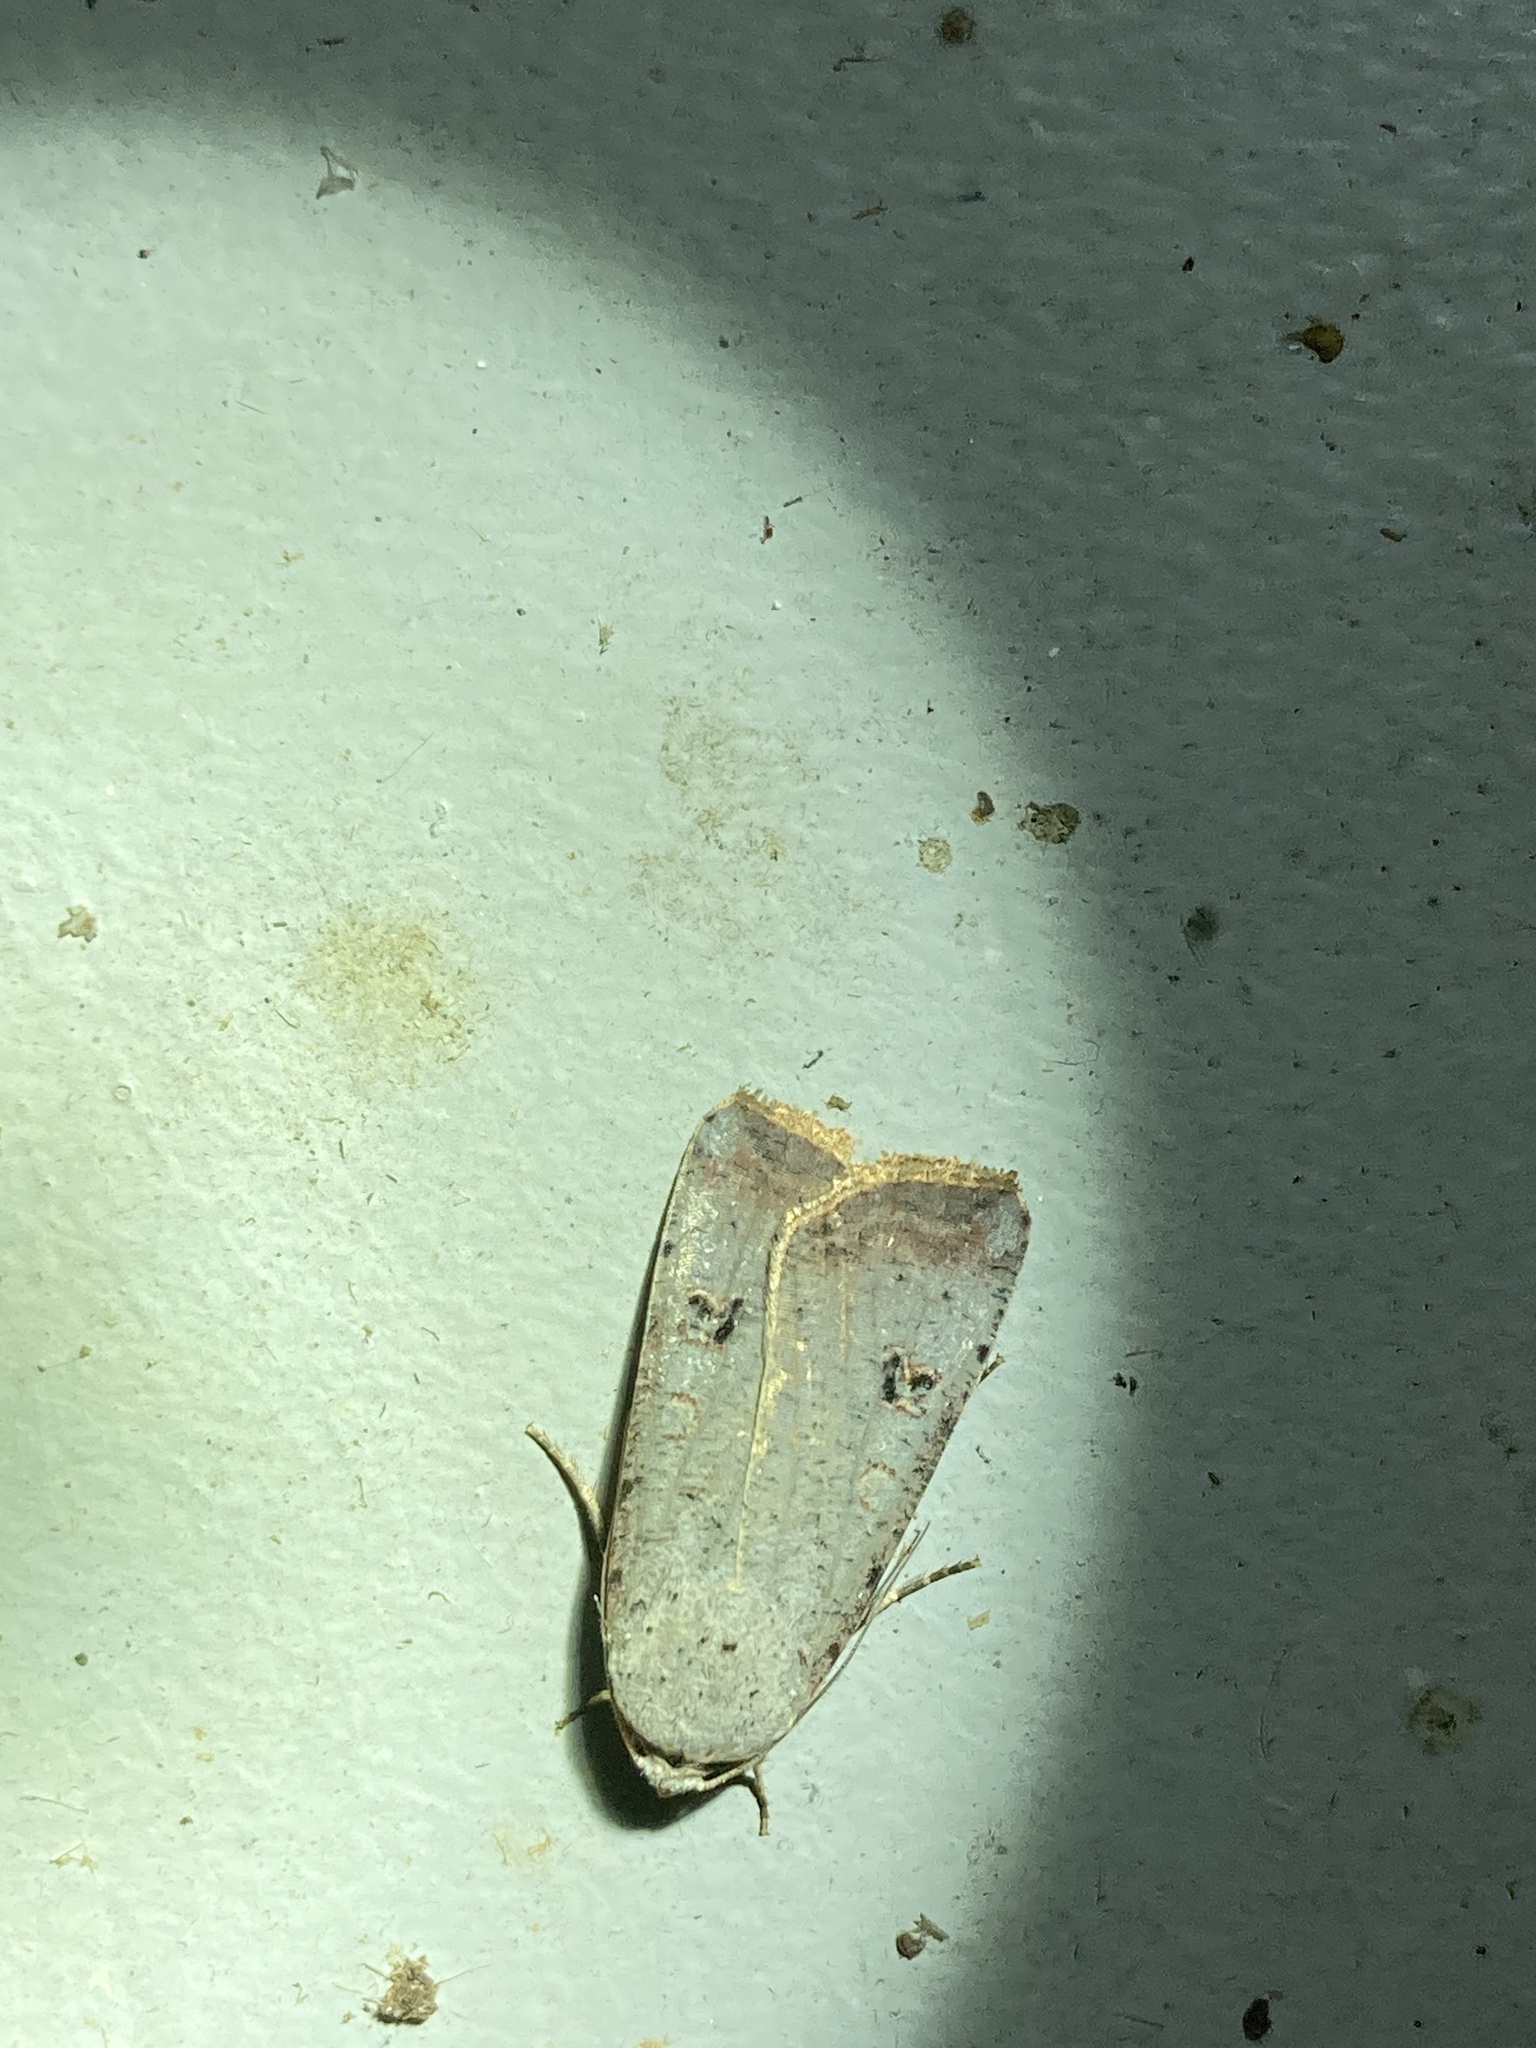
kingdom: Animalia
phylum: Arthropoda
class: Insecta
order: Lepidoptera
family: Noctuidae
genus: Anicla
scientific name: Anicla infecta
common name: Green cutworm
